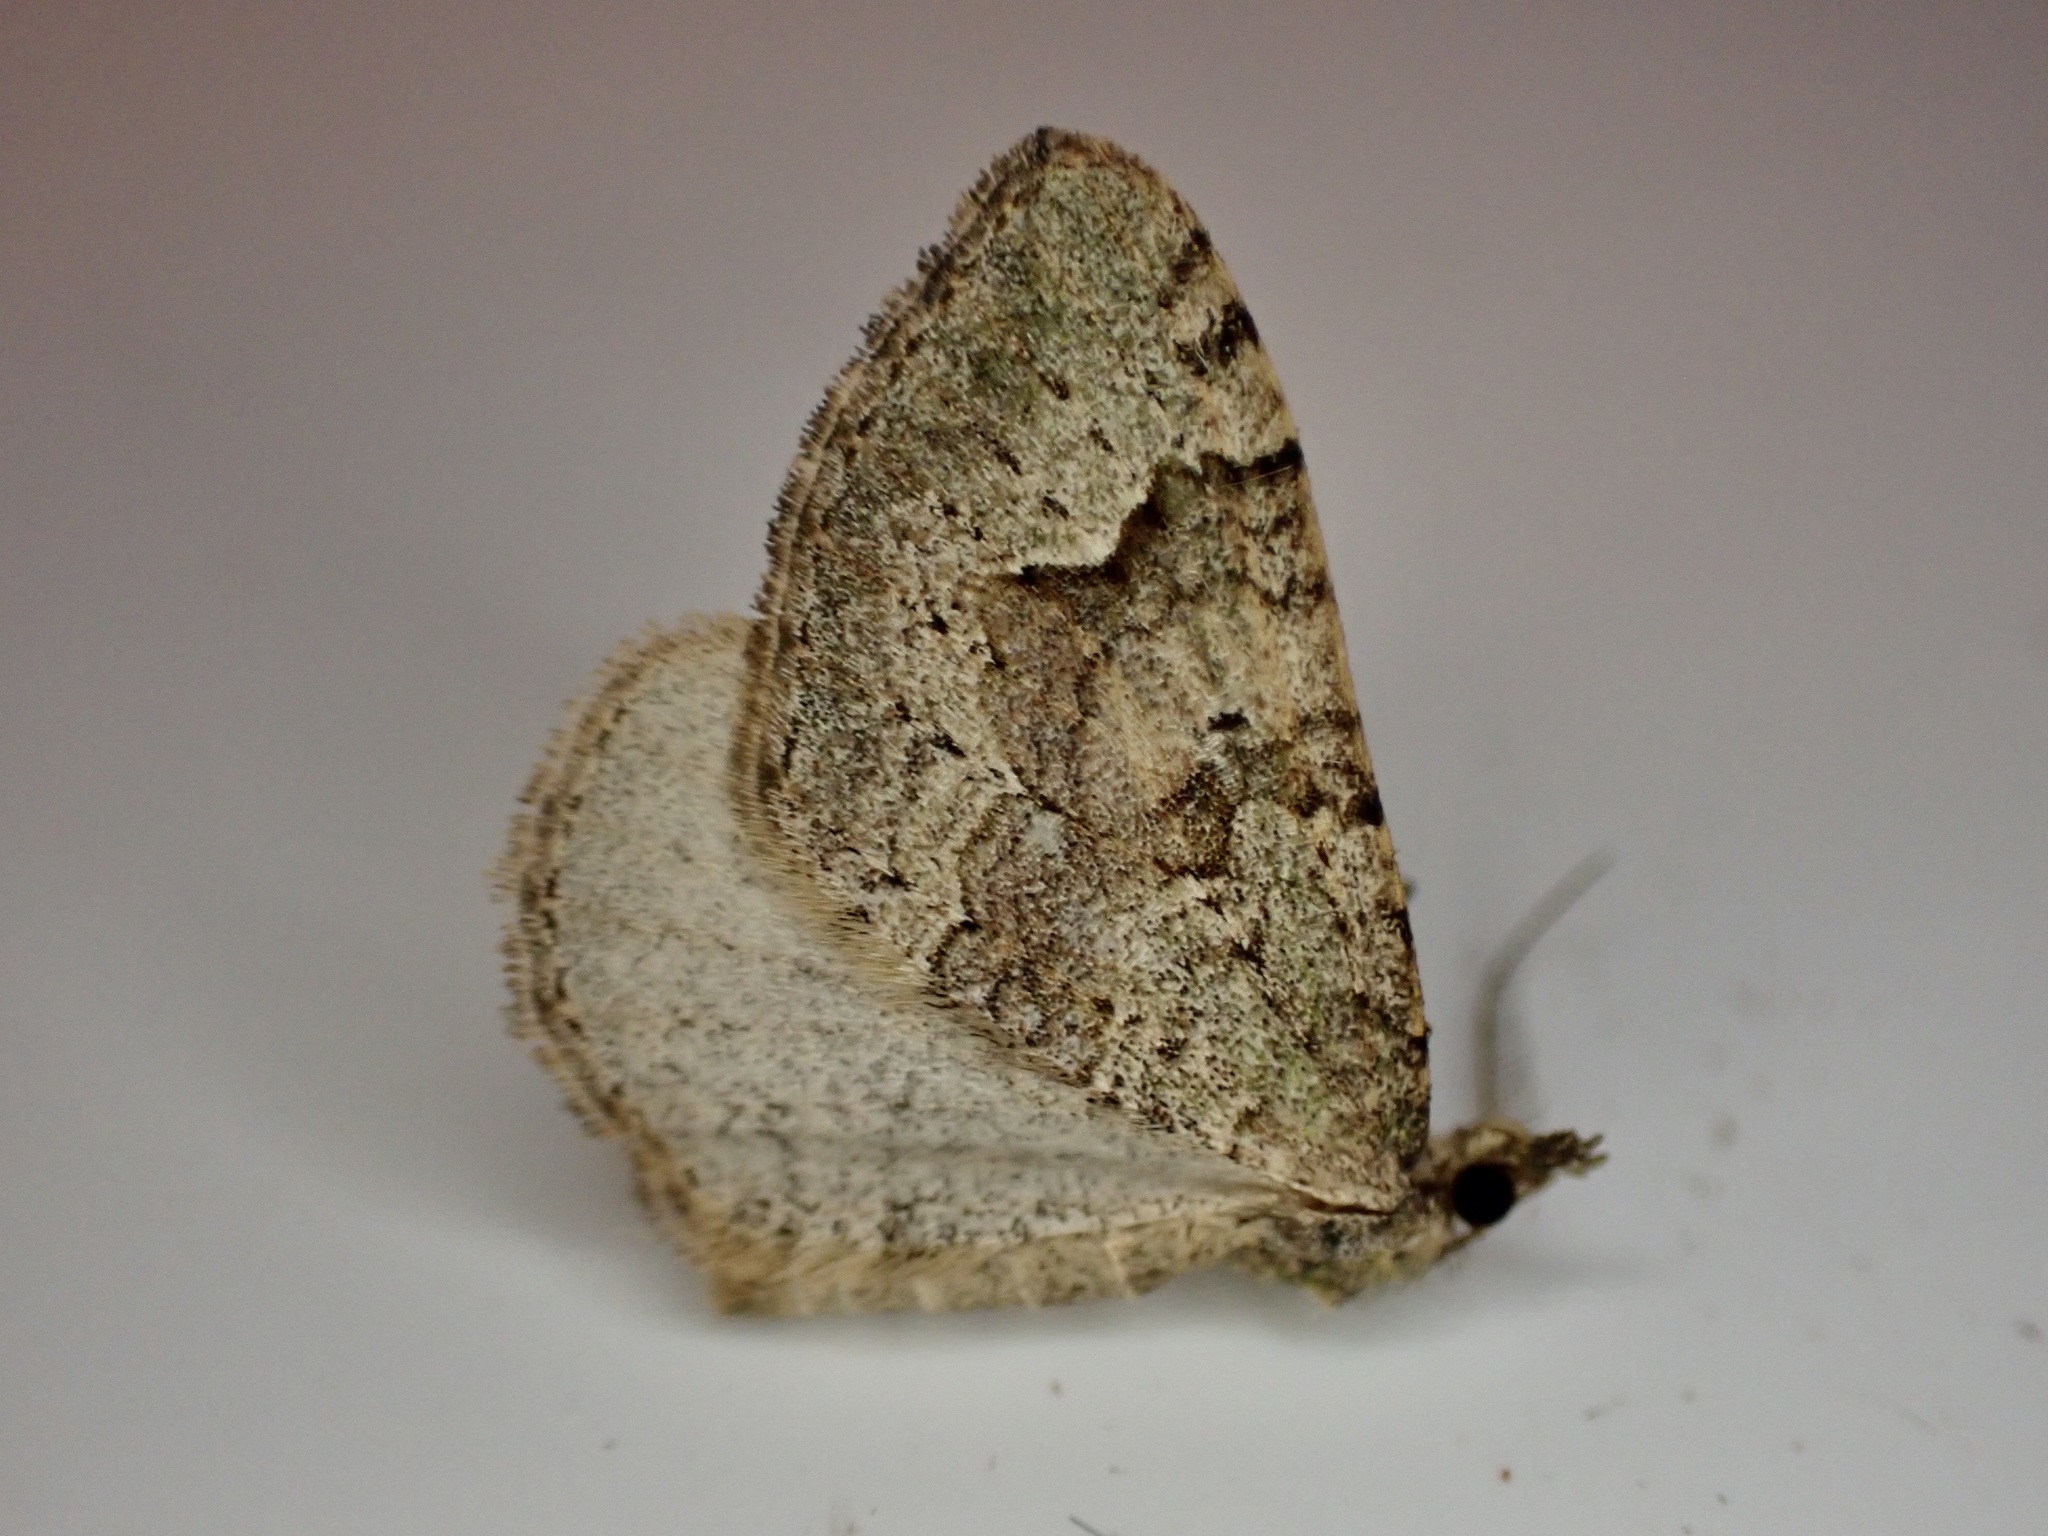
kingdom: Animalia
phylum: Arthropoda
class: Insecta
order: Lepidoptera
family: Geometridae
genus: Epyaxa
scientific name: Epyaxa rosearia
